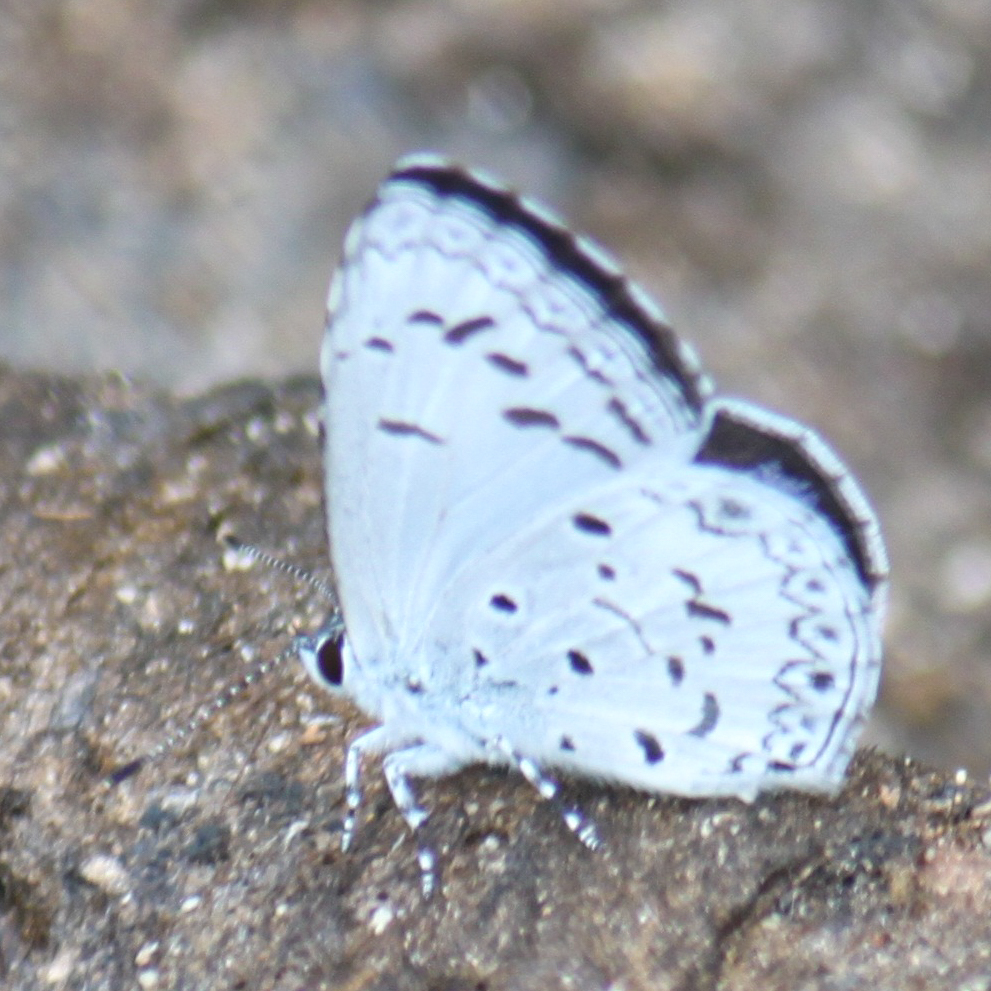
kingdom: Animalia
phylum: Arthropoda
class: Insecta
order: Lepidoptera
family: Lycaenidae
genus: Acytolepis
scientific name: Acytolepis puspa
